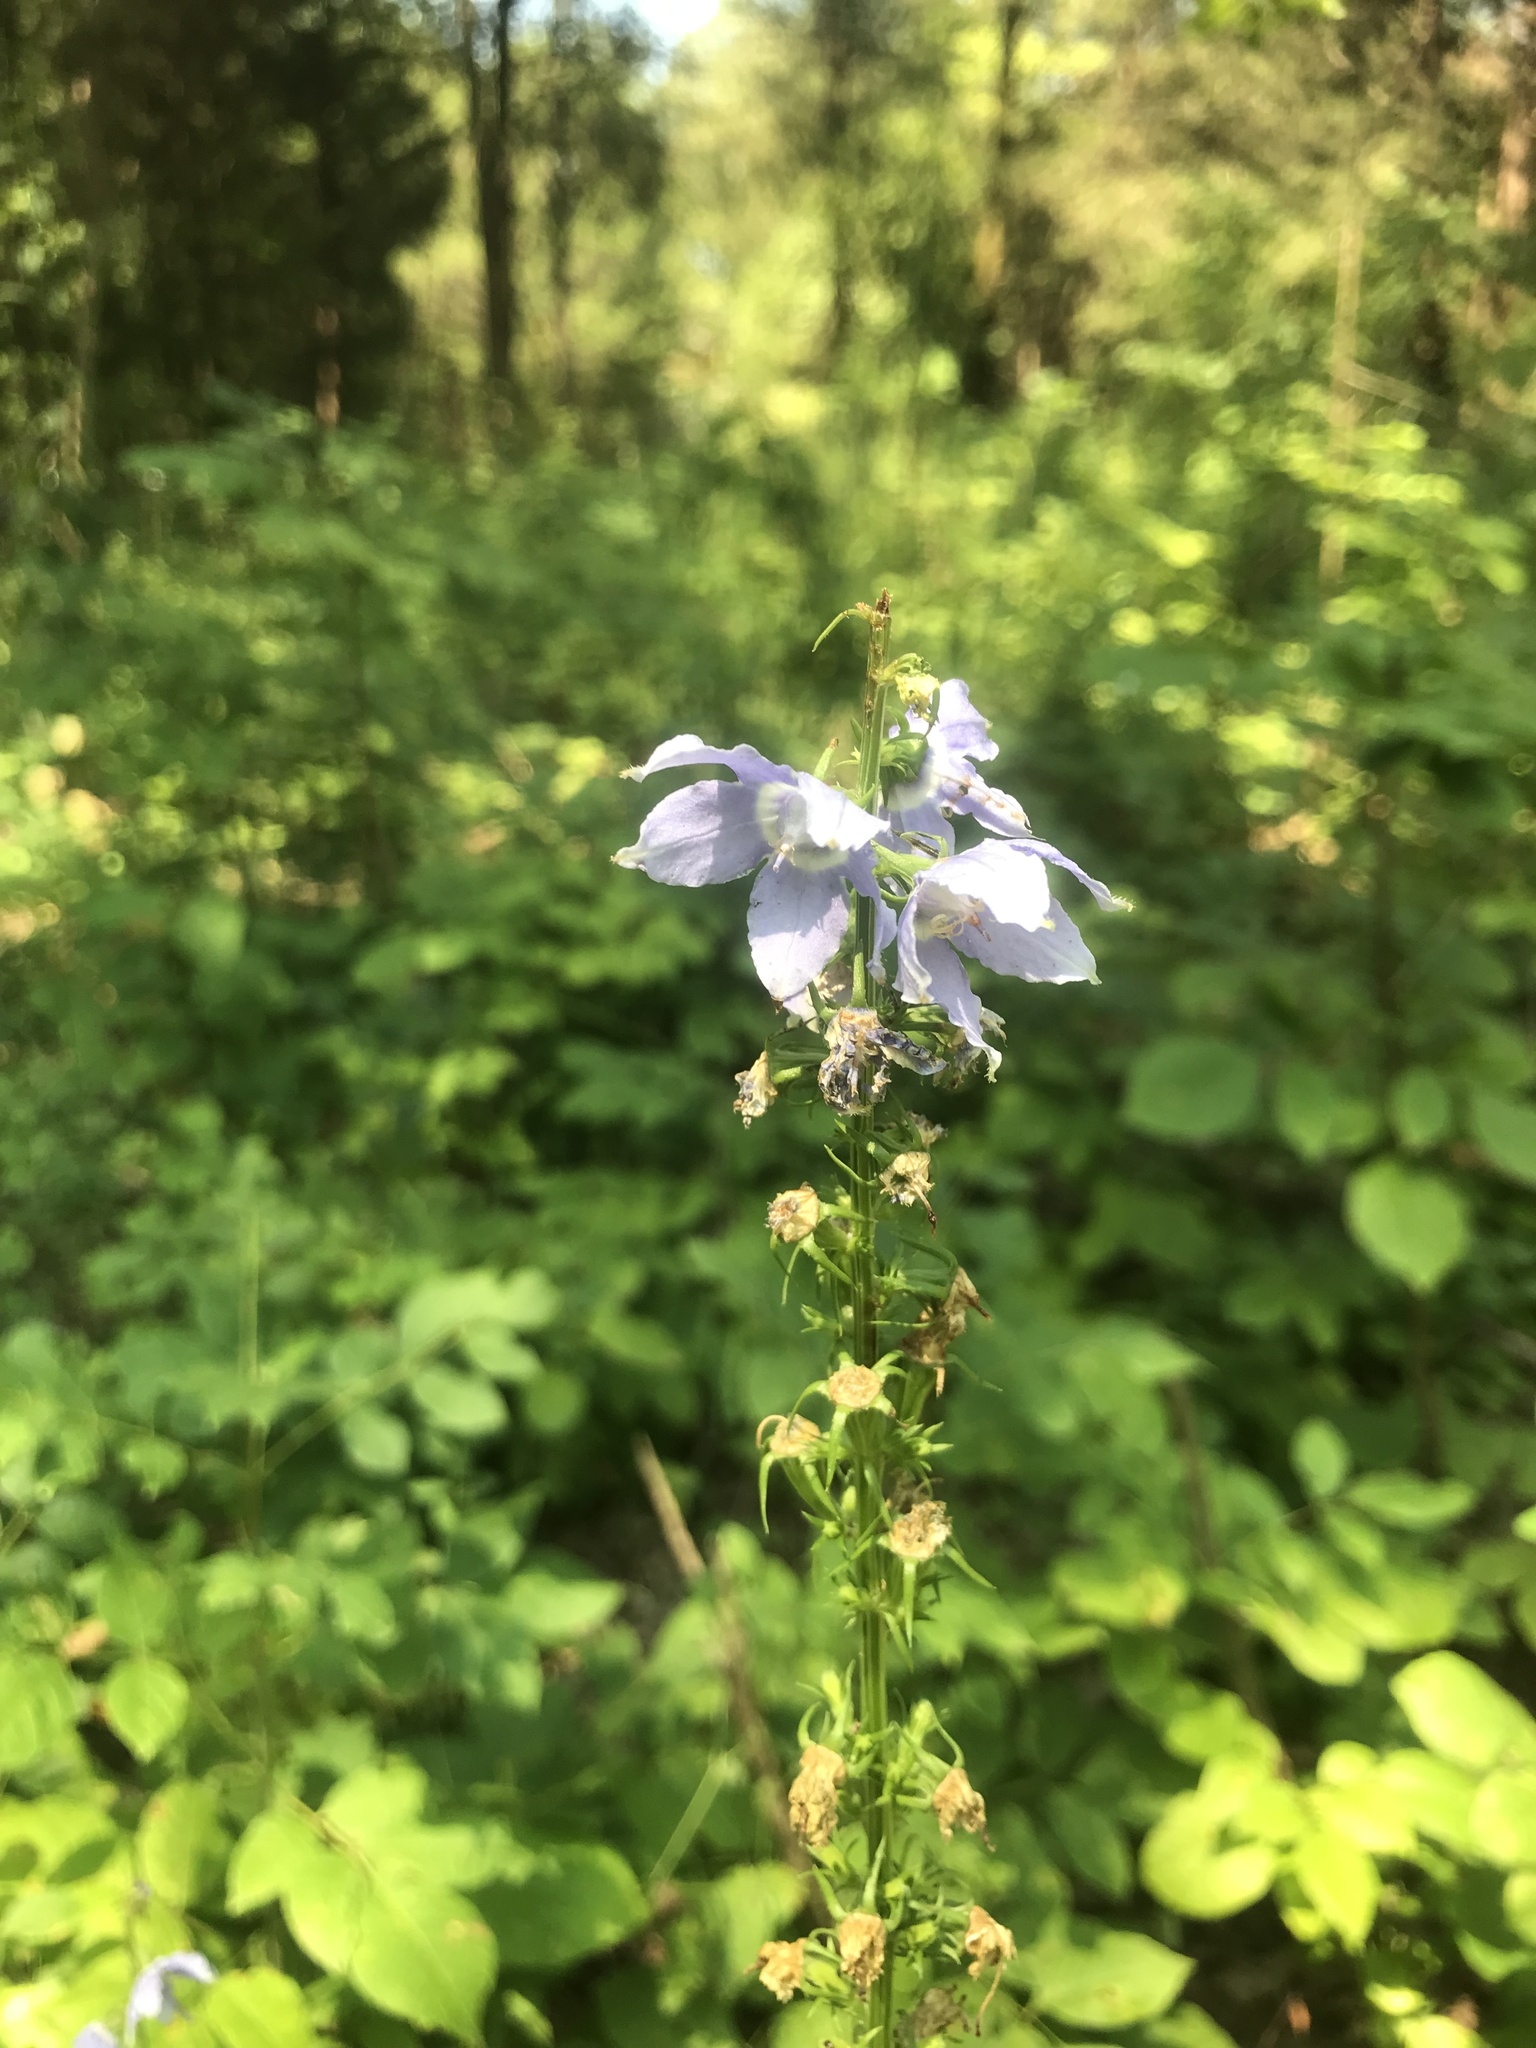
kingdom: Plantae
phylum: Tracheophyta
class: Magnoliopsida
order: Asterales
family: Campanulaceae
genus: Campanulastrum
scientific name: Campanulastrum americanum
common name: American bellflower
